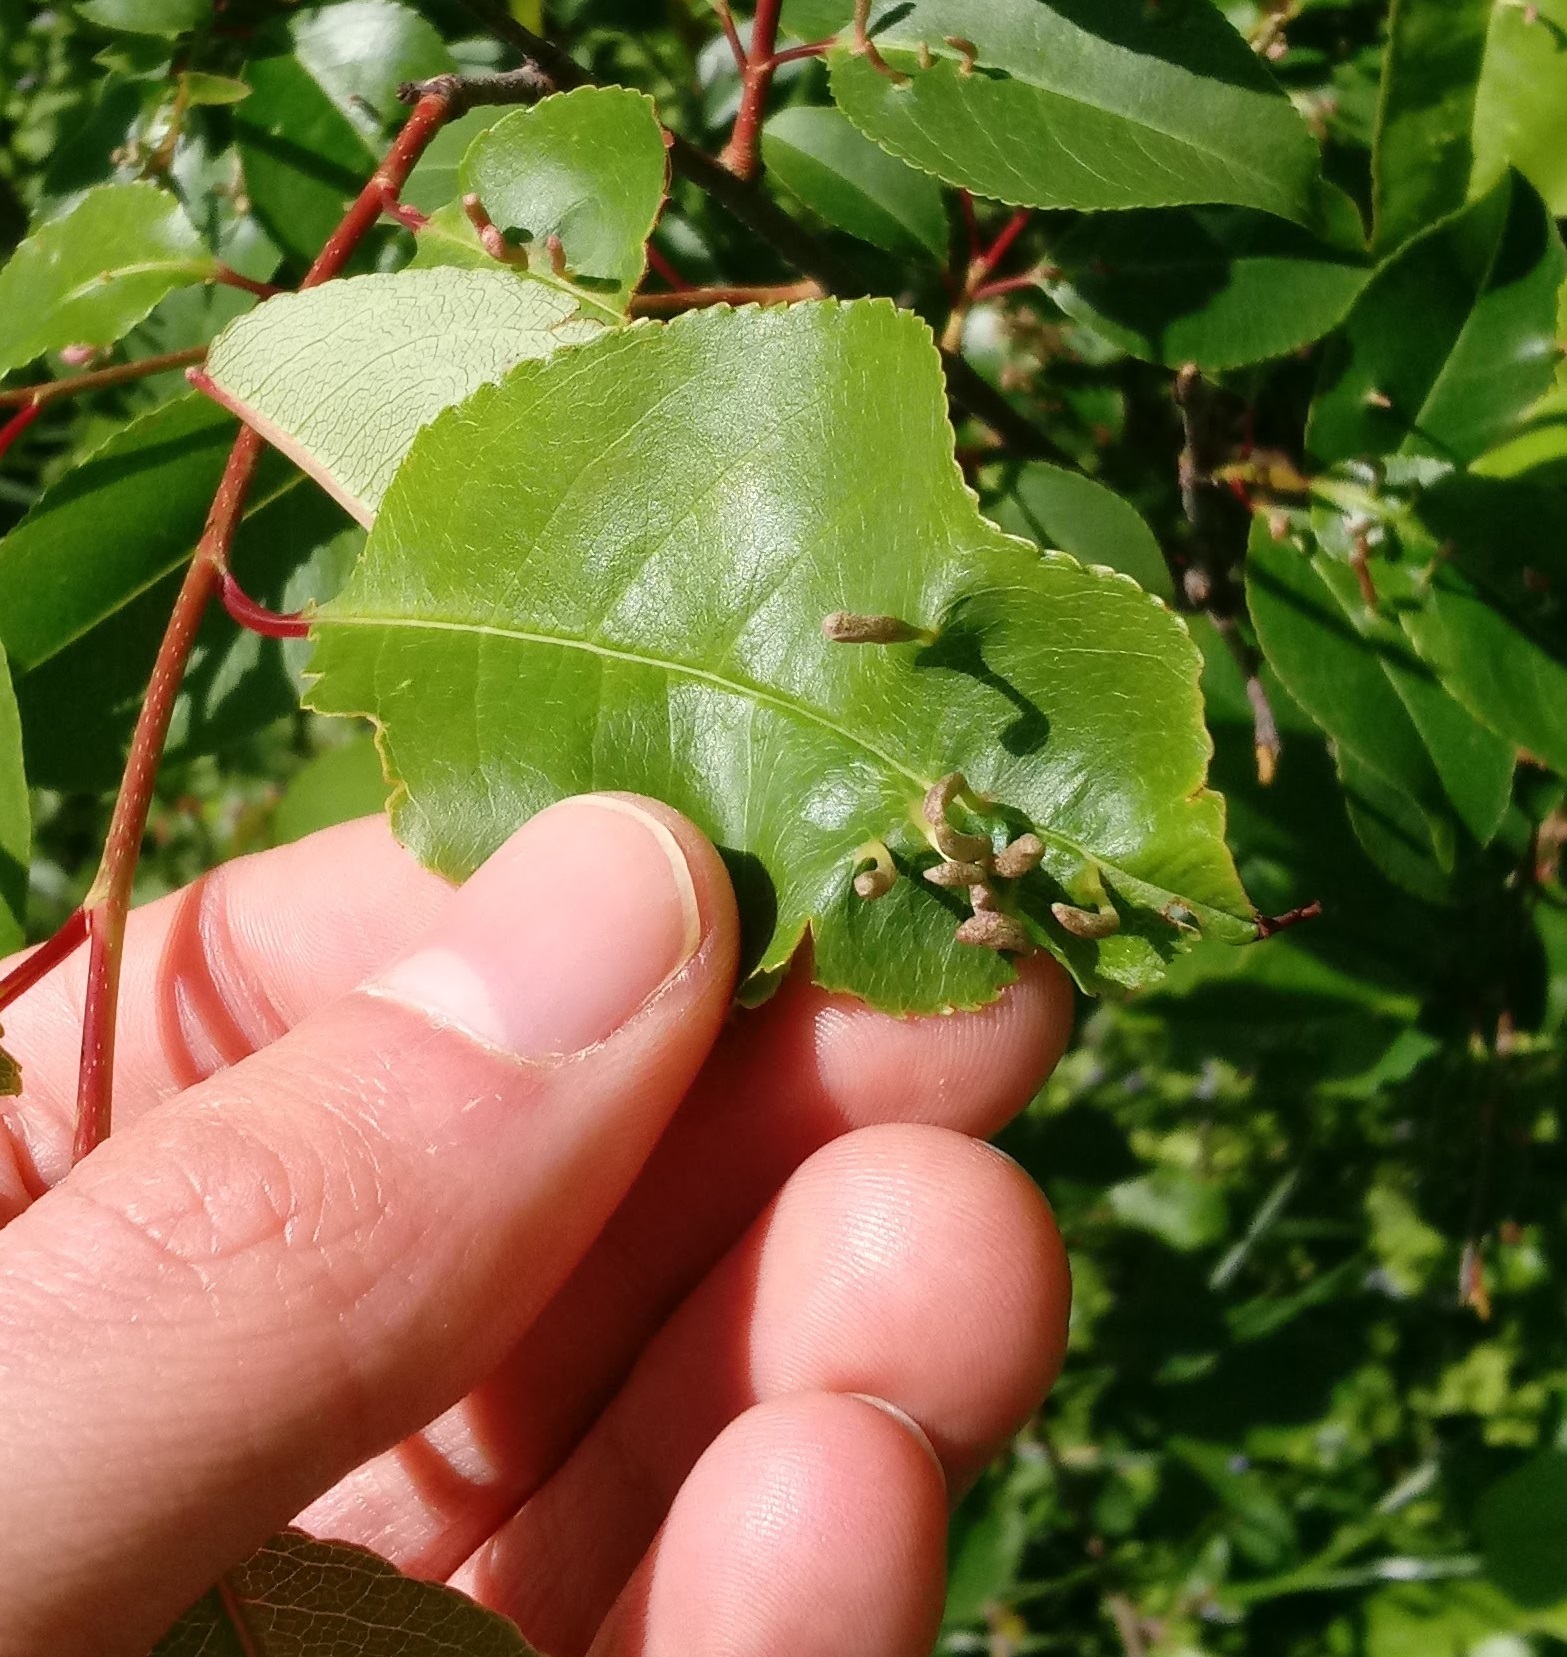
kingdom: Animalia
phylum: Arthropoda
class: Arachnida
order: Trombidiformes
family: Eriophyidae
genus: Eriophyes
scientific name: Eriophyes
